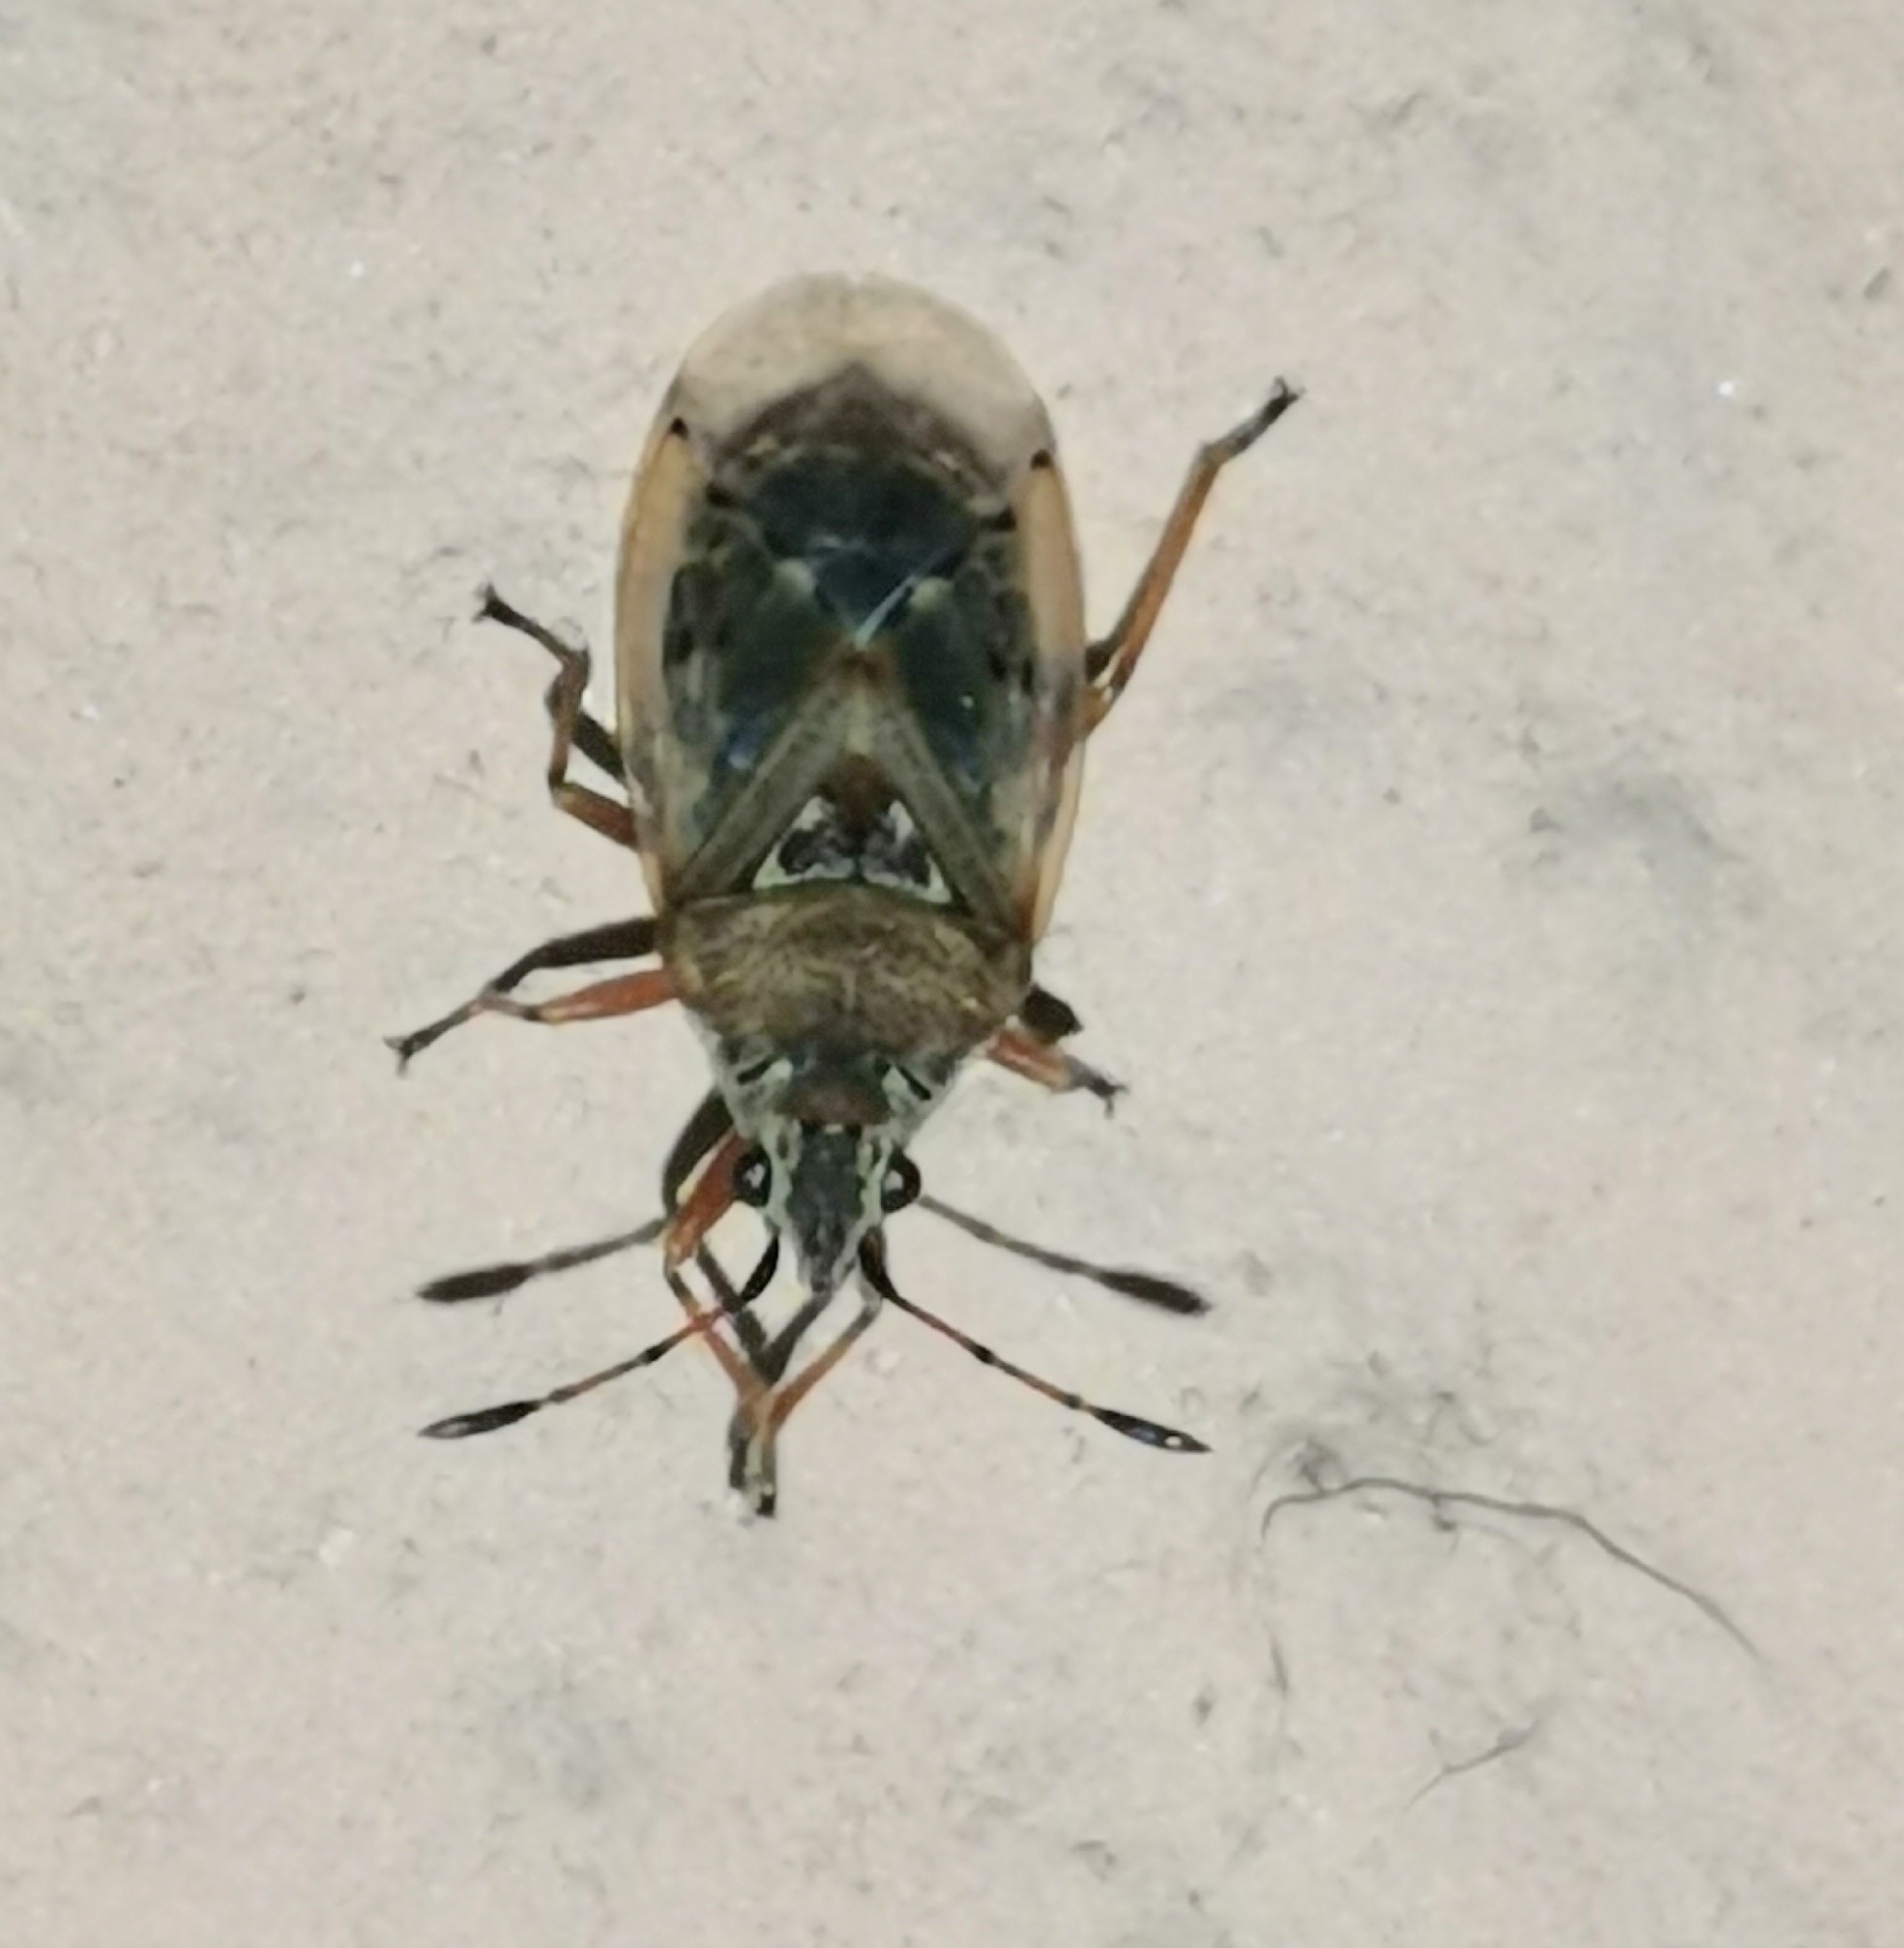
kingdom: Animalia
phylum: Arthropoda
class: Insecta
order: Hemiptera
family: Lygaeidae
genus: Kleidocerys
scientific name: Kleidocerys resedae
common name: Birch catkin bug
